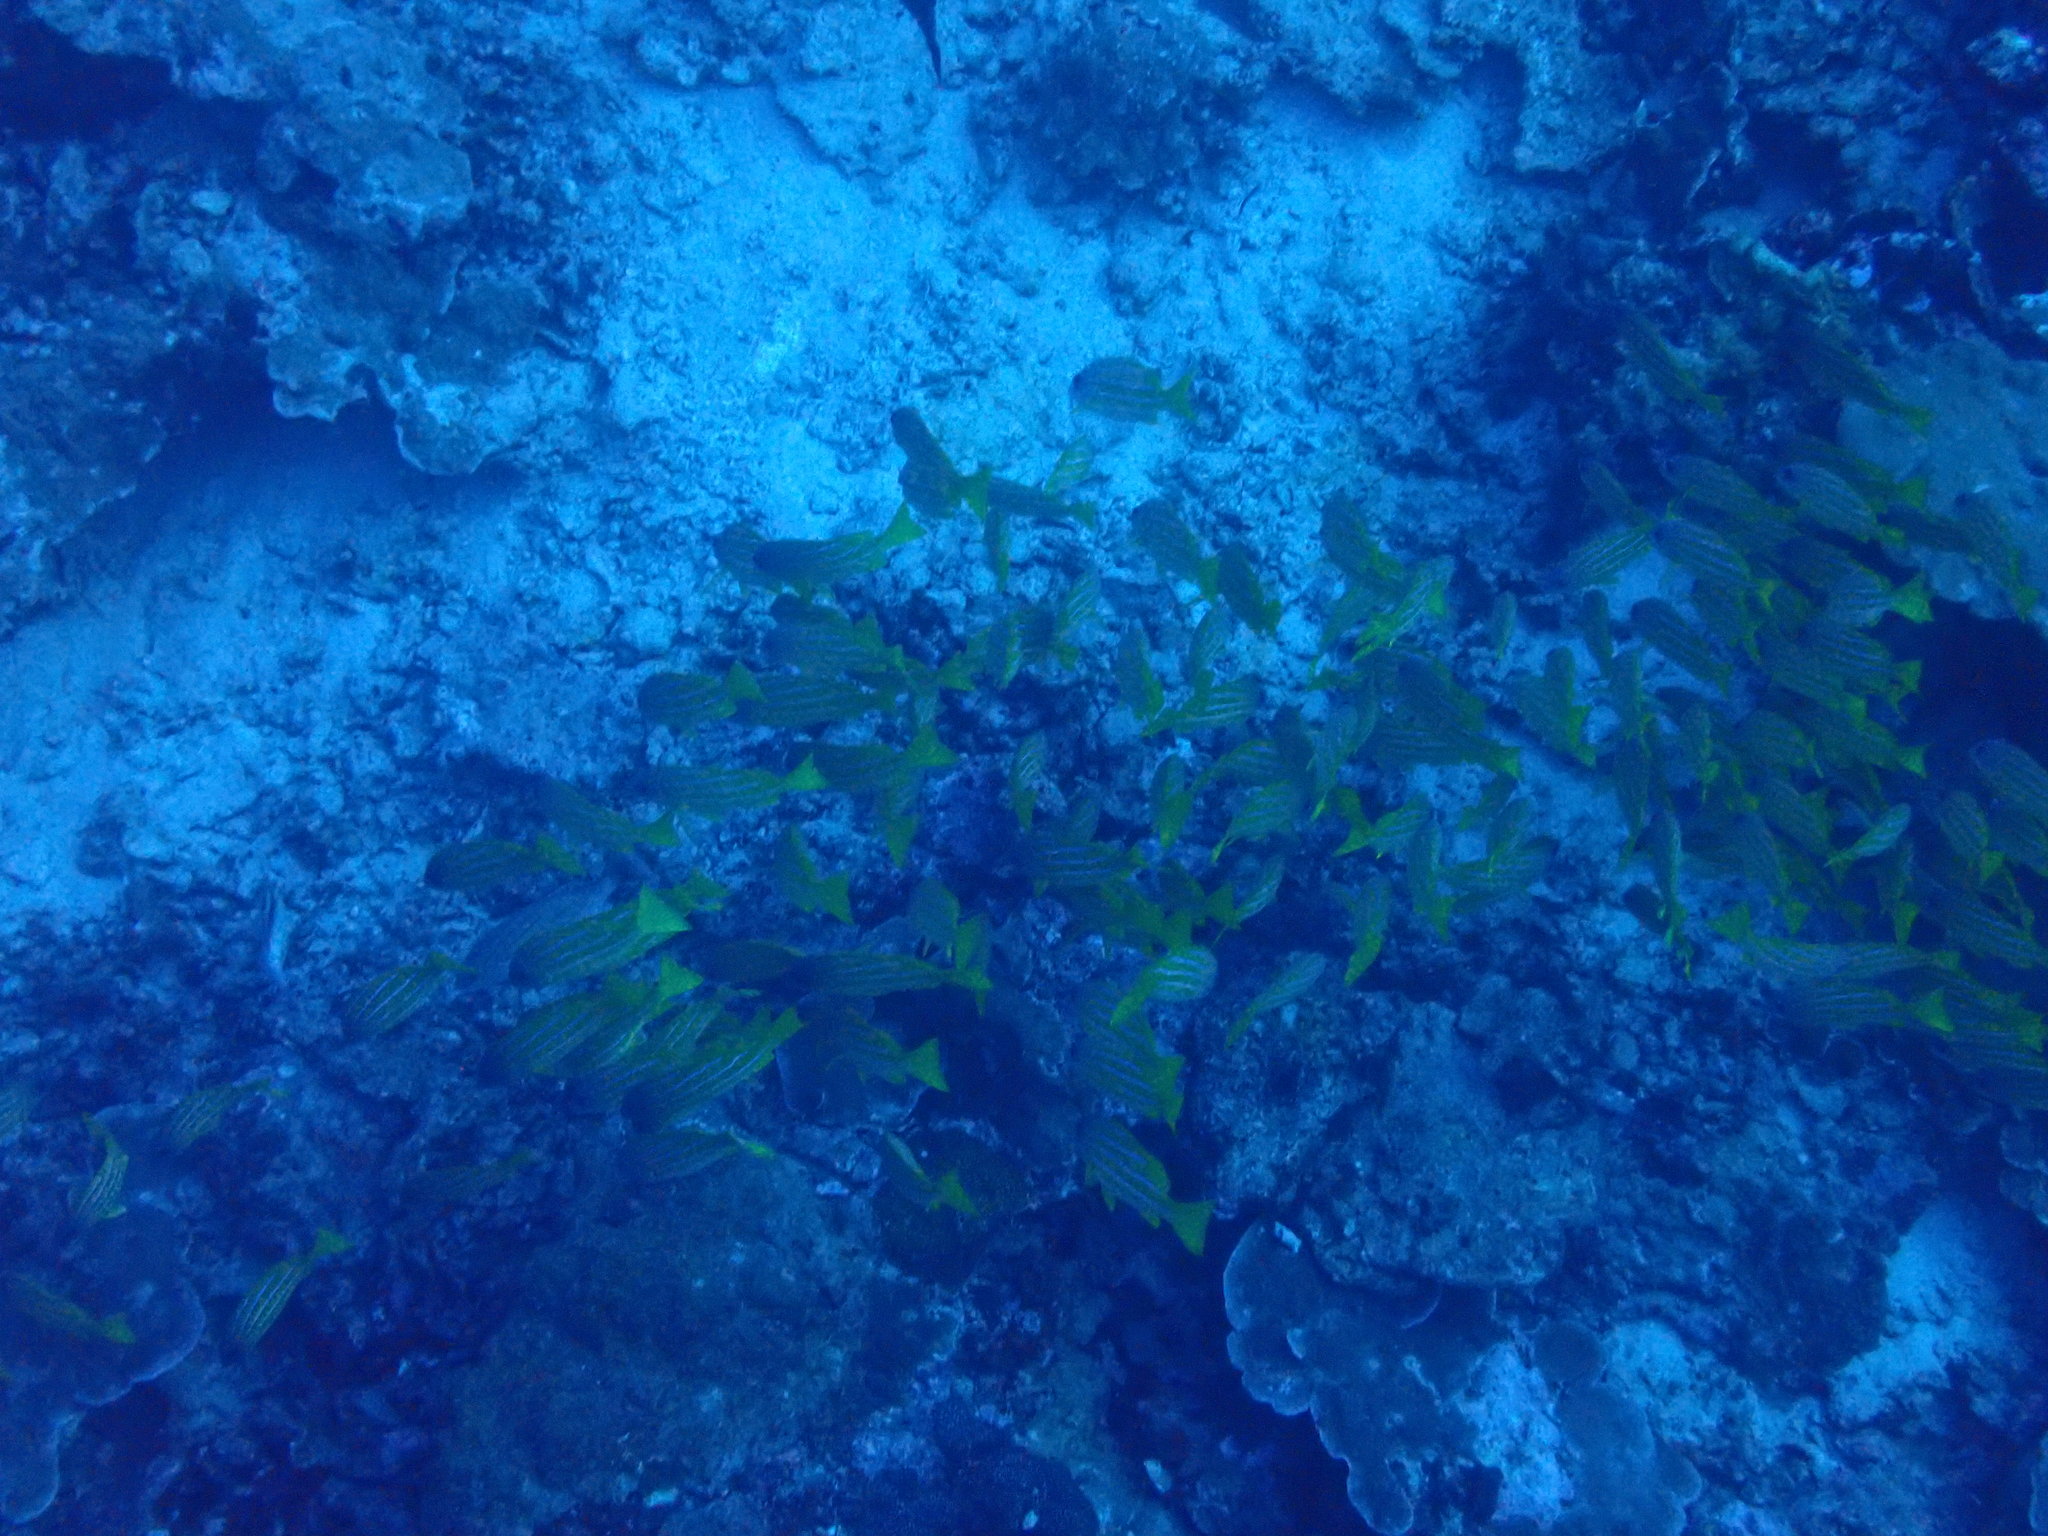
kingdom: Animalia
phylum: Chordata
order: Perciformes
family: Lutjanidae
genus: Lutjanus
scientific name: Lutjanus kasmira
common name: Common bluestripe snapper
